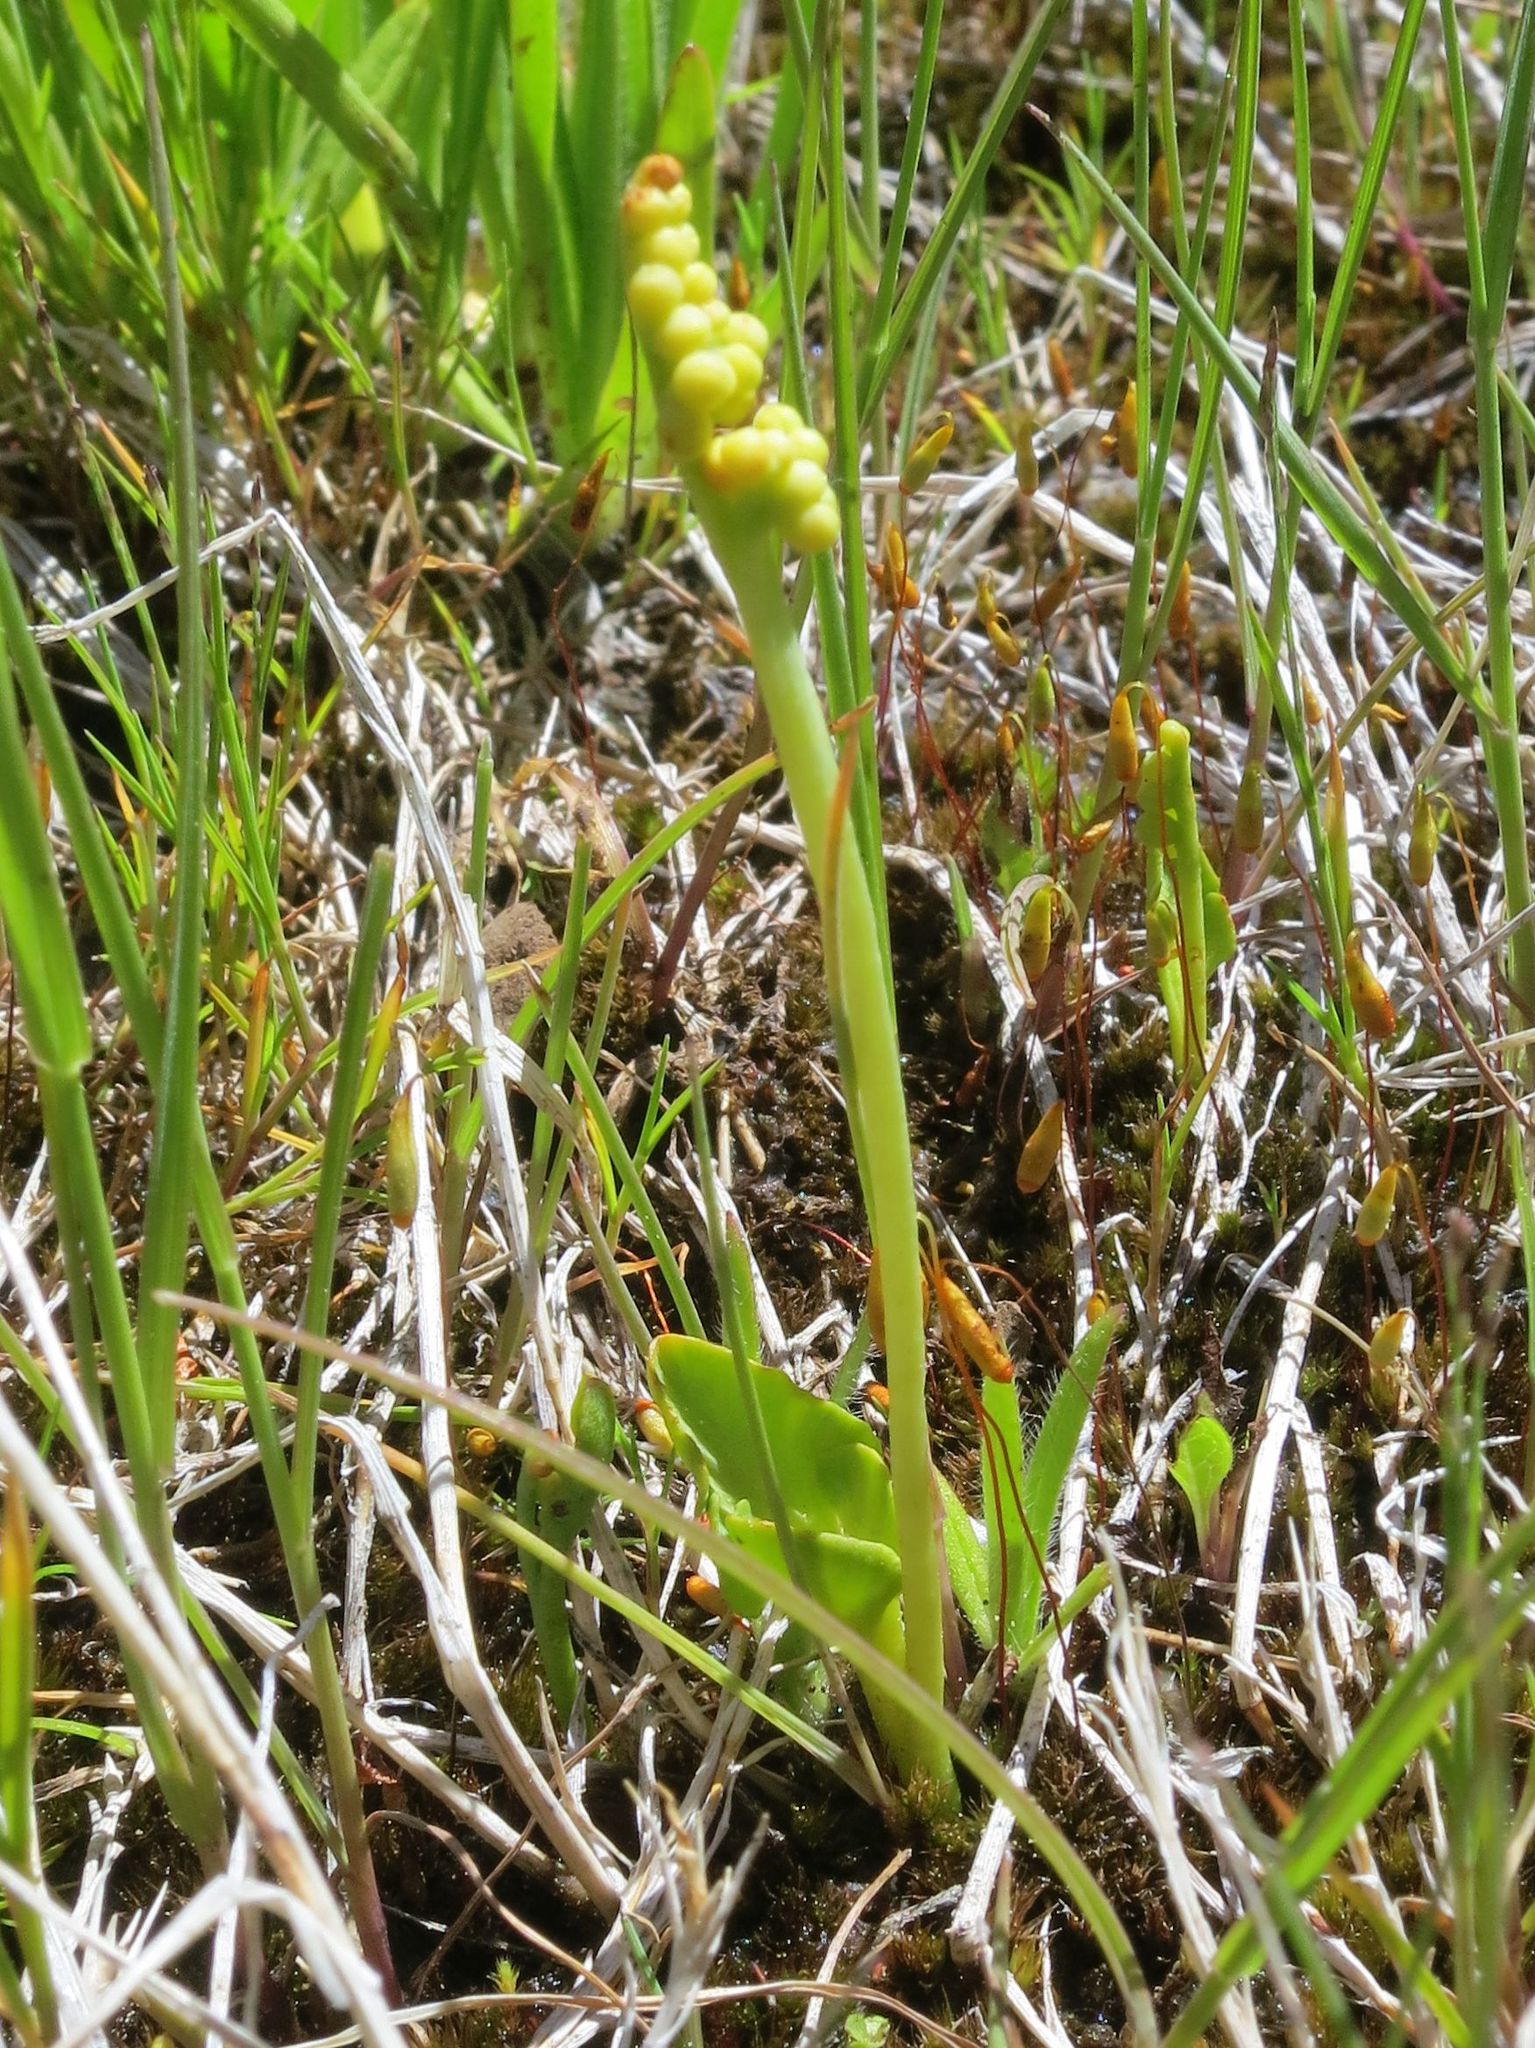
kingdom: Plantae
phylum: Tracheophyta
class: Polypodiopsida
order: Ophioglossales
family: Ophioglossaceae
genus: Botrychium
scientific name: Botrychium simplex
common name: Least moonwort
